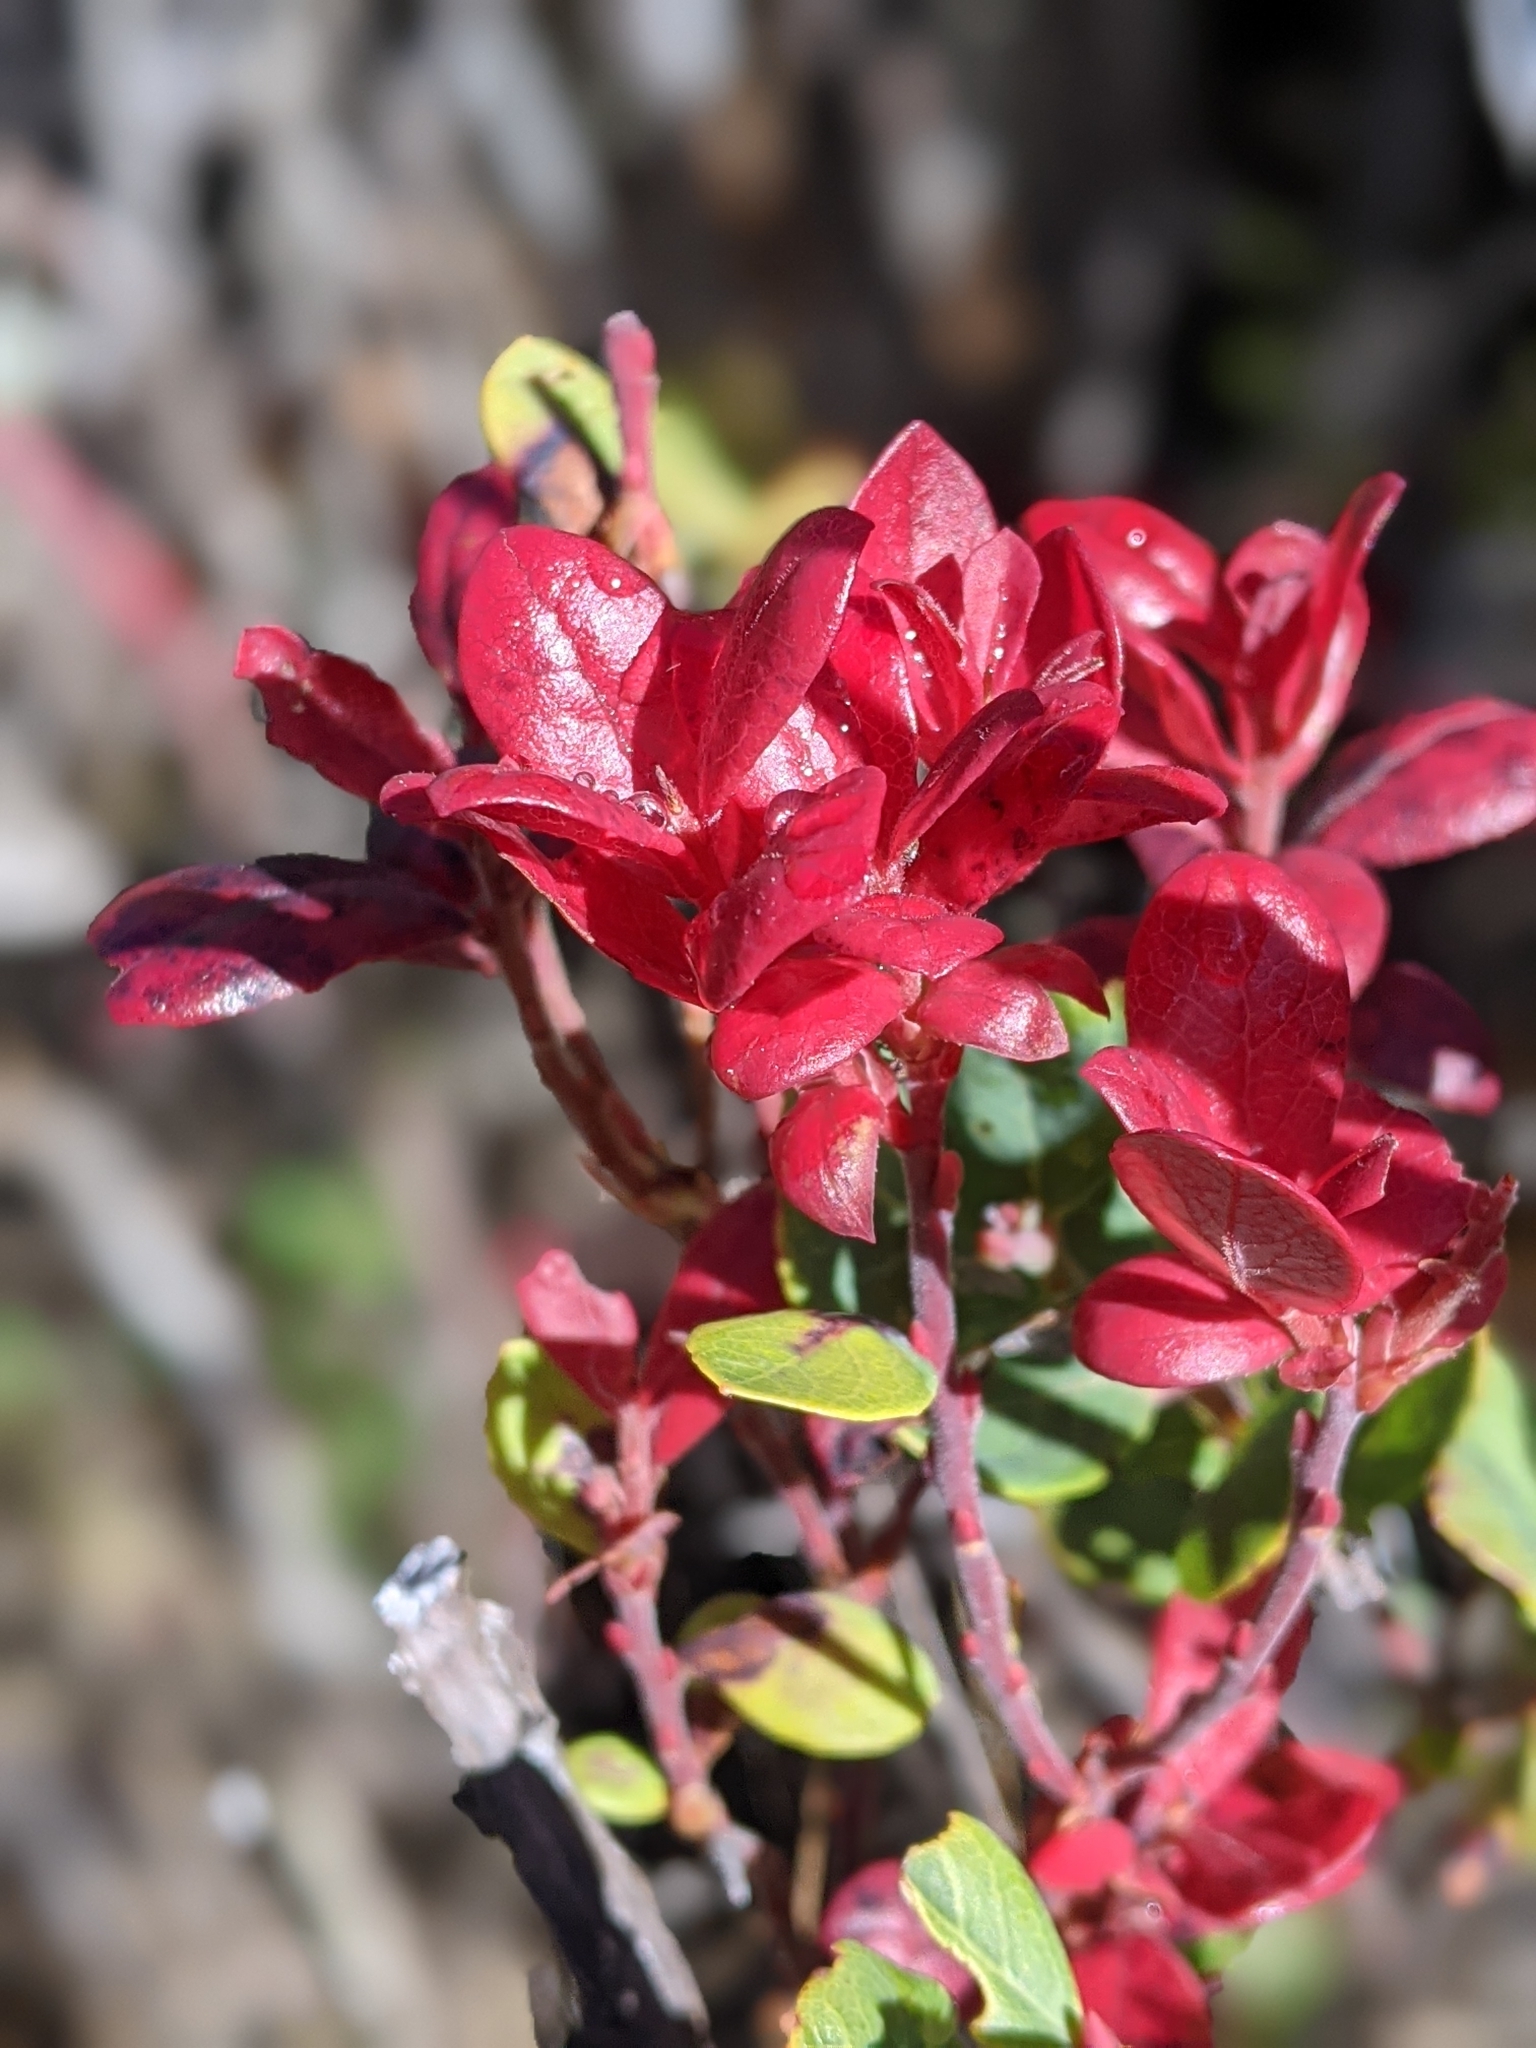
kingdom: Plantae
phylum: Tracheophyta
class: Magnoliopsida
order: Ericales
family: Ericaceae
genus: Vaccinium
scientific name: Vaccinium reticulatum
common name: Ohelo
